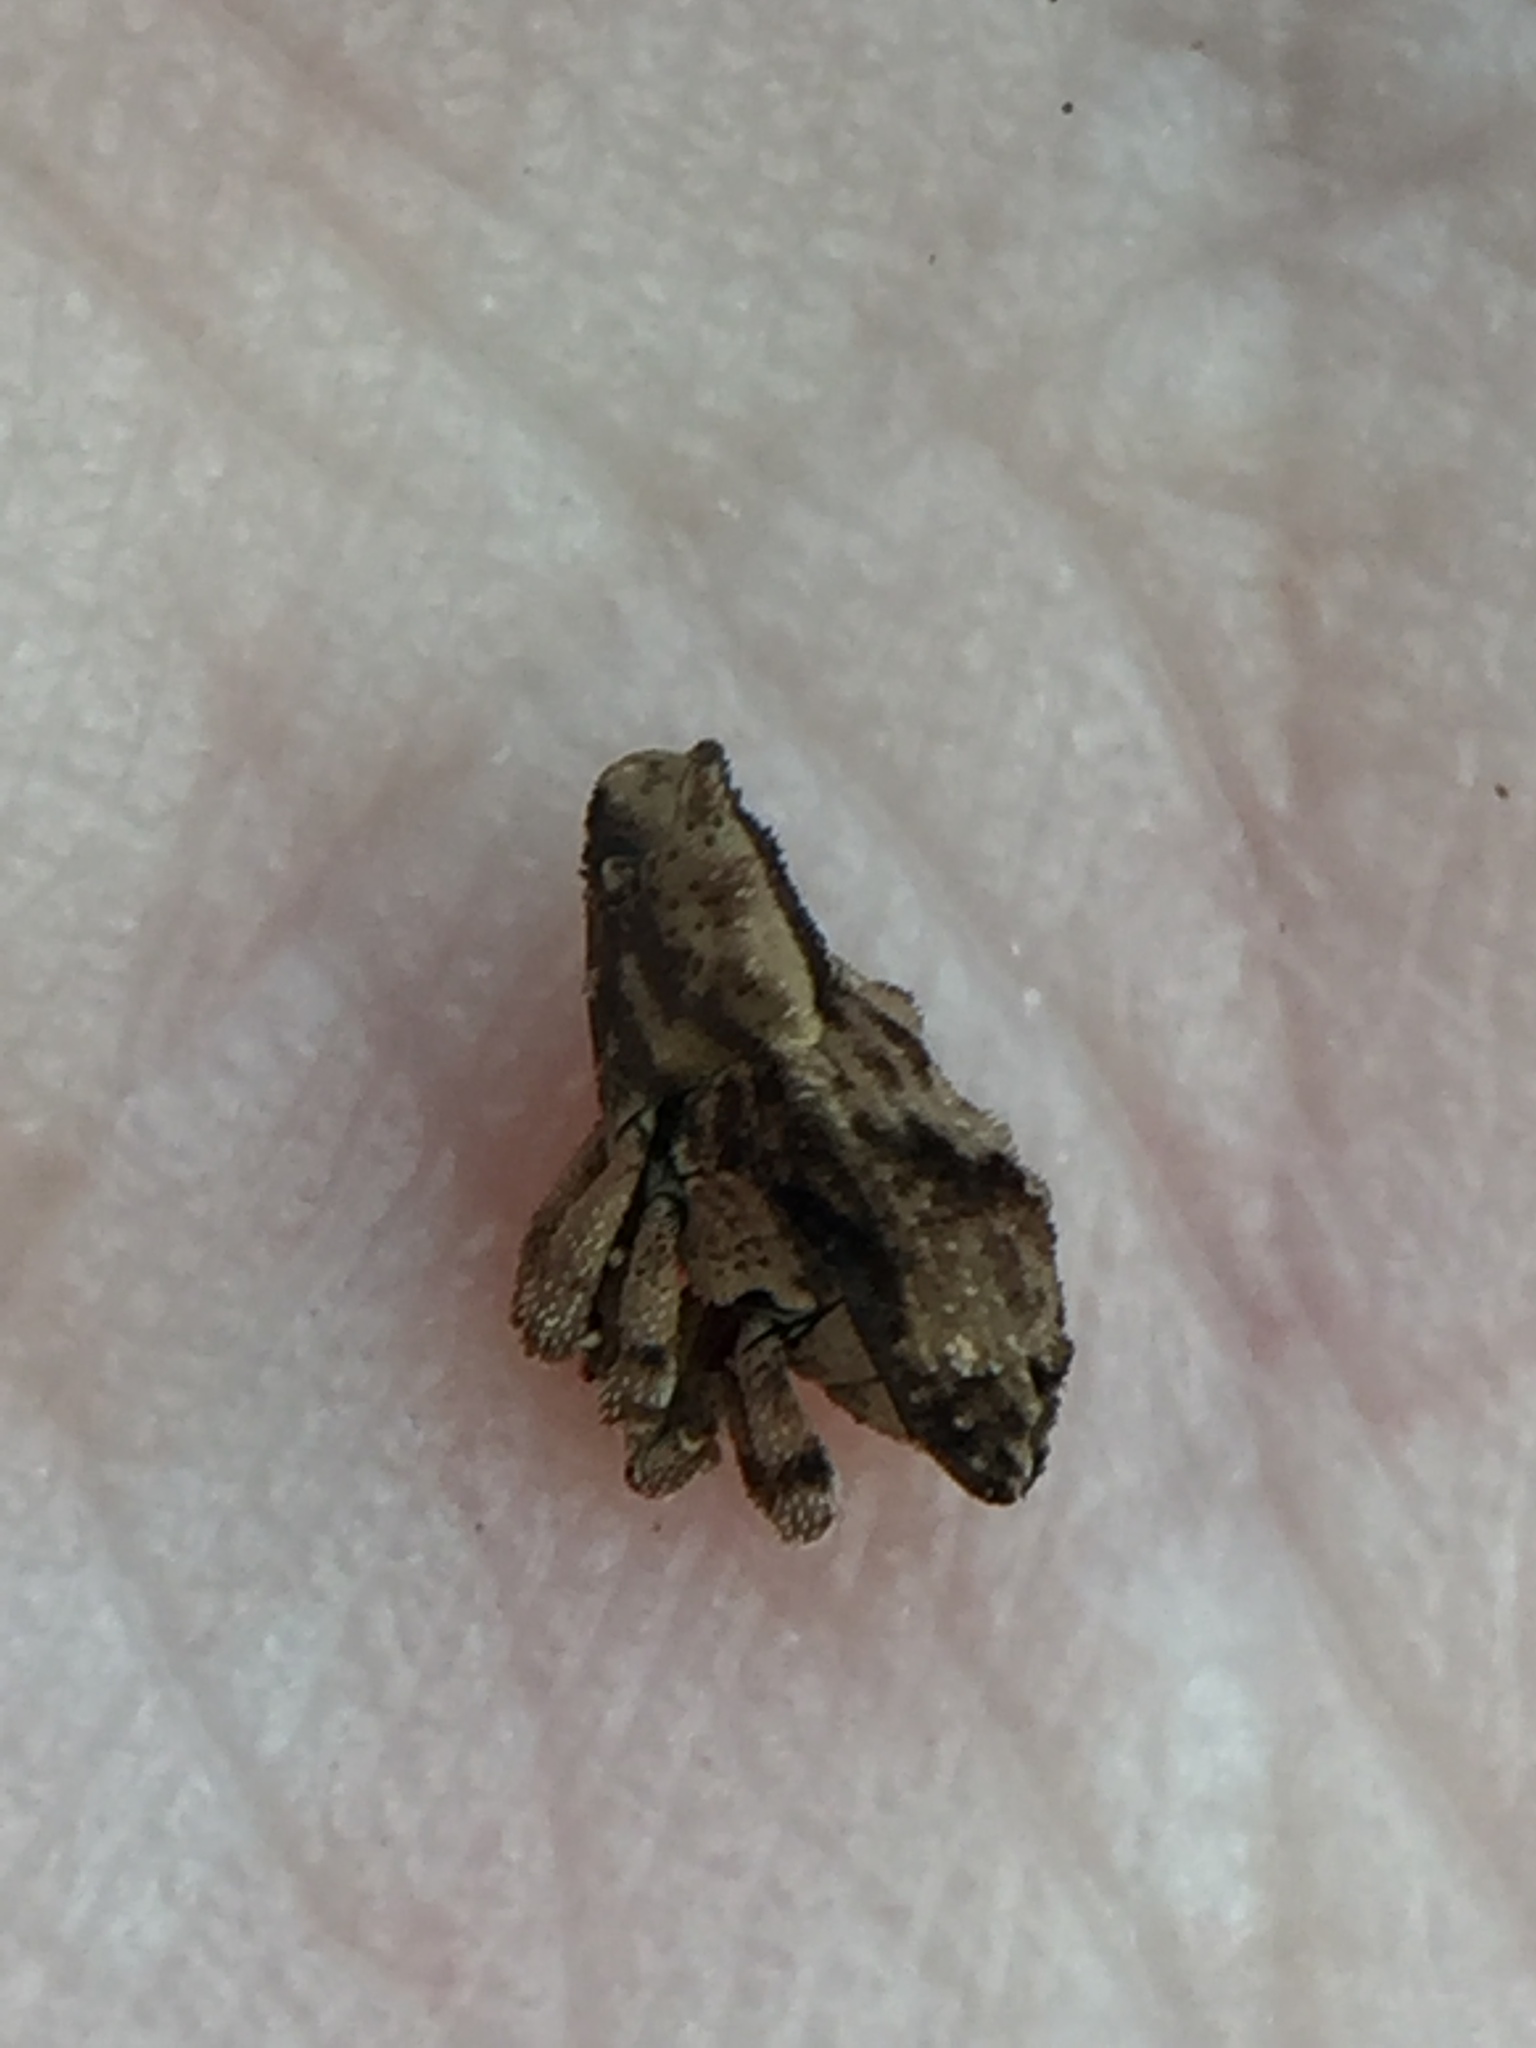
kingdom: Animalia
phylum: Arthropoda
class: Insecta
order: Coleoptera
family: Curculionidae
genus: Mecistostylus
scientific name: Mecistostylus douei
